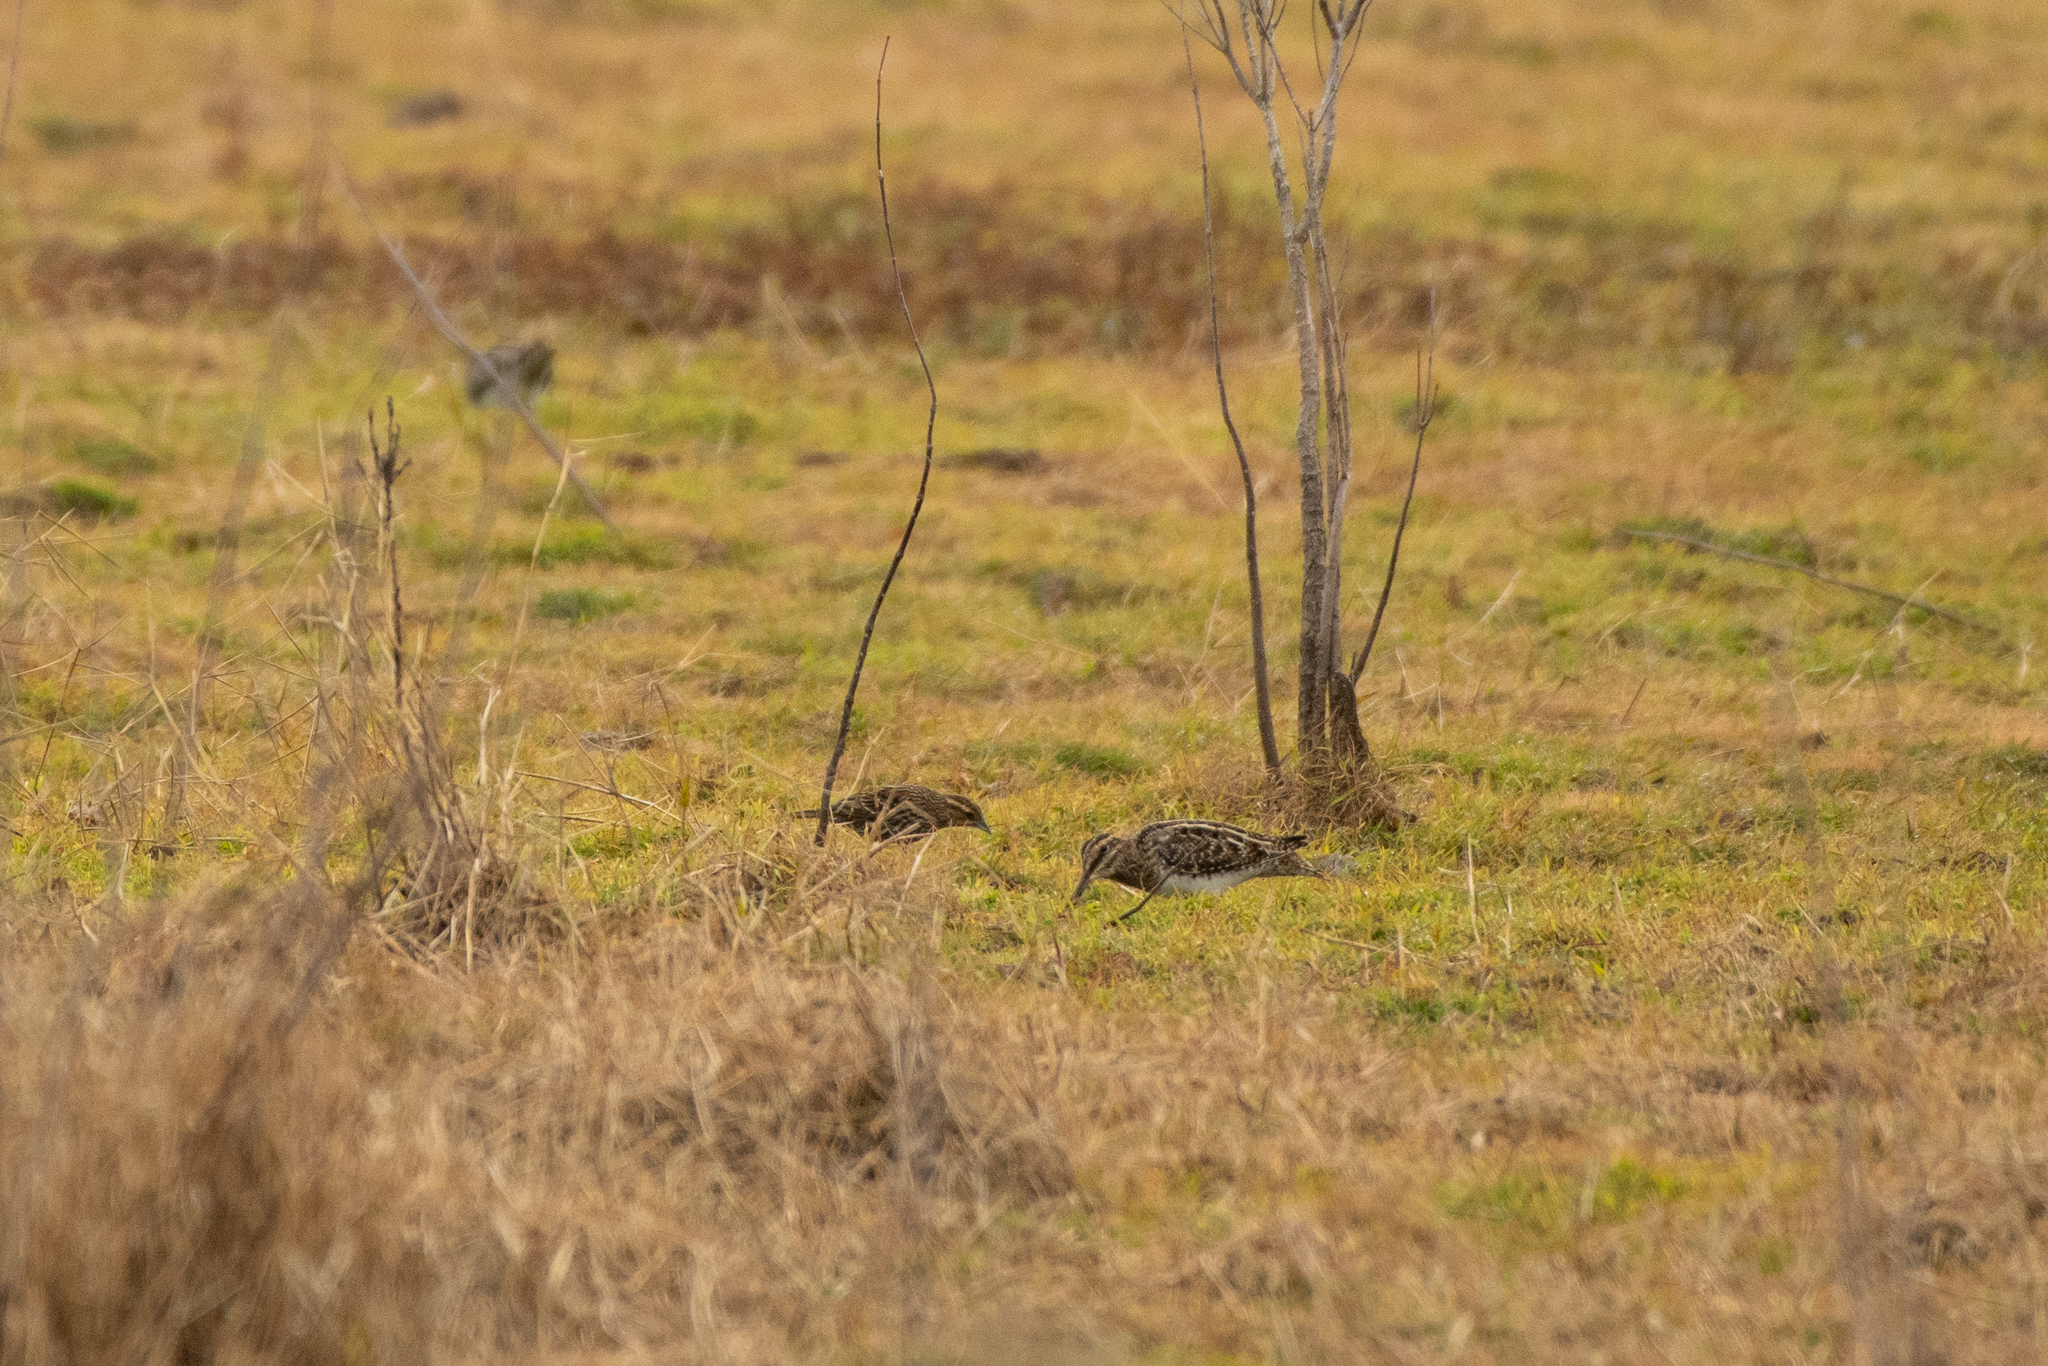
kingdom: Animalia
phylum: Chordata
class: Aves
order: Charadriiformes
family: Scolopacidae
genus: Gallinago
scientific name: Gallinago delicata
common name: Wilson's snipe
